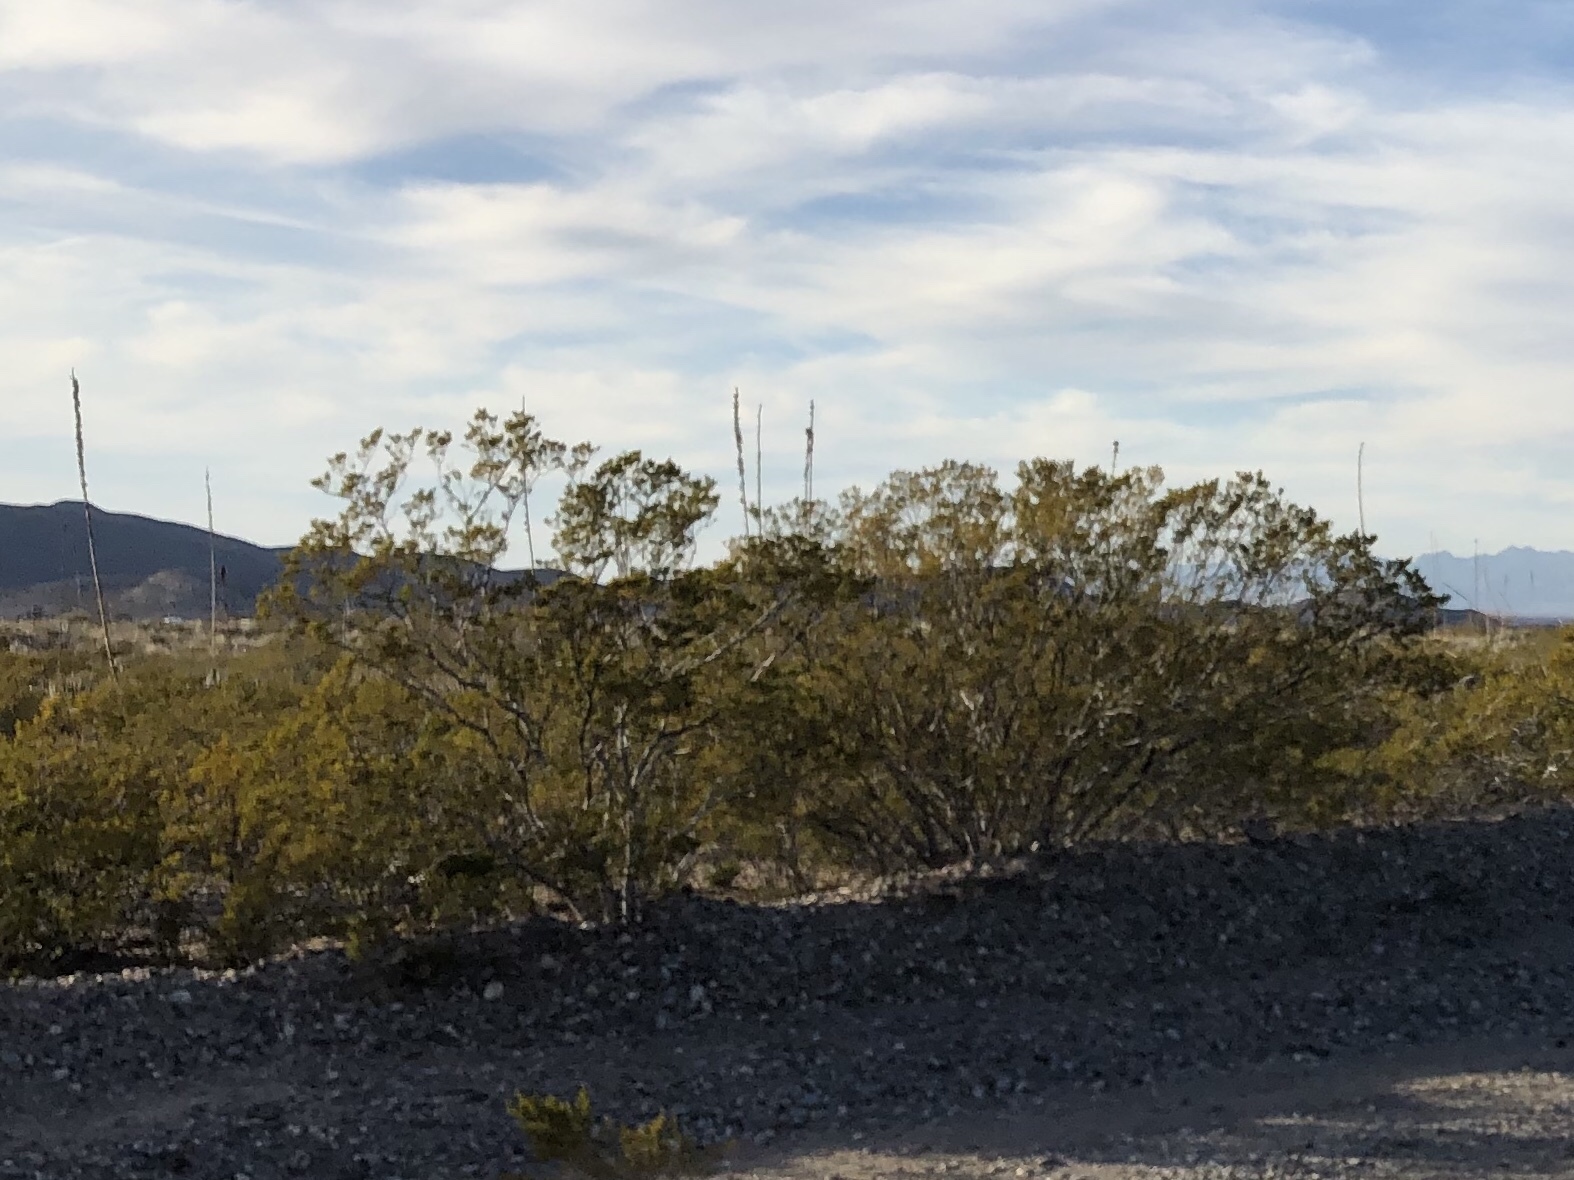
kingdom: Plantae
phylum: Tracheophyta
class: Magnoliopsida
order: Zygophyllales
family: Zygophyllaceae
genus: Larrea
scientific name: Larrea tridentata
